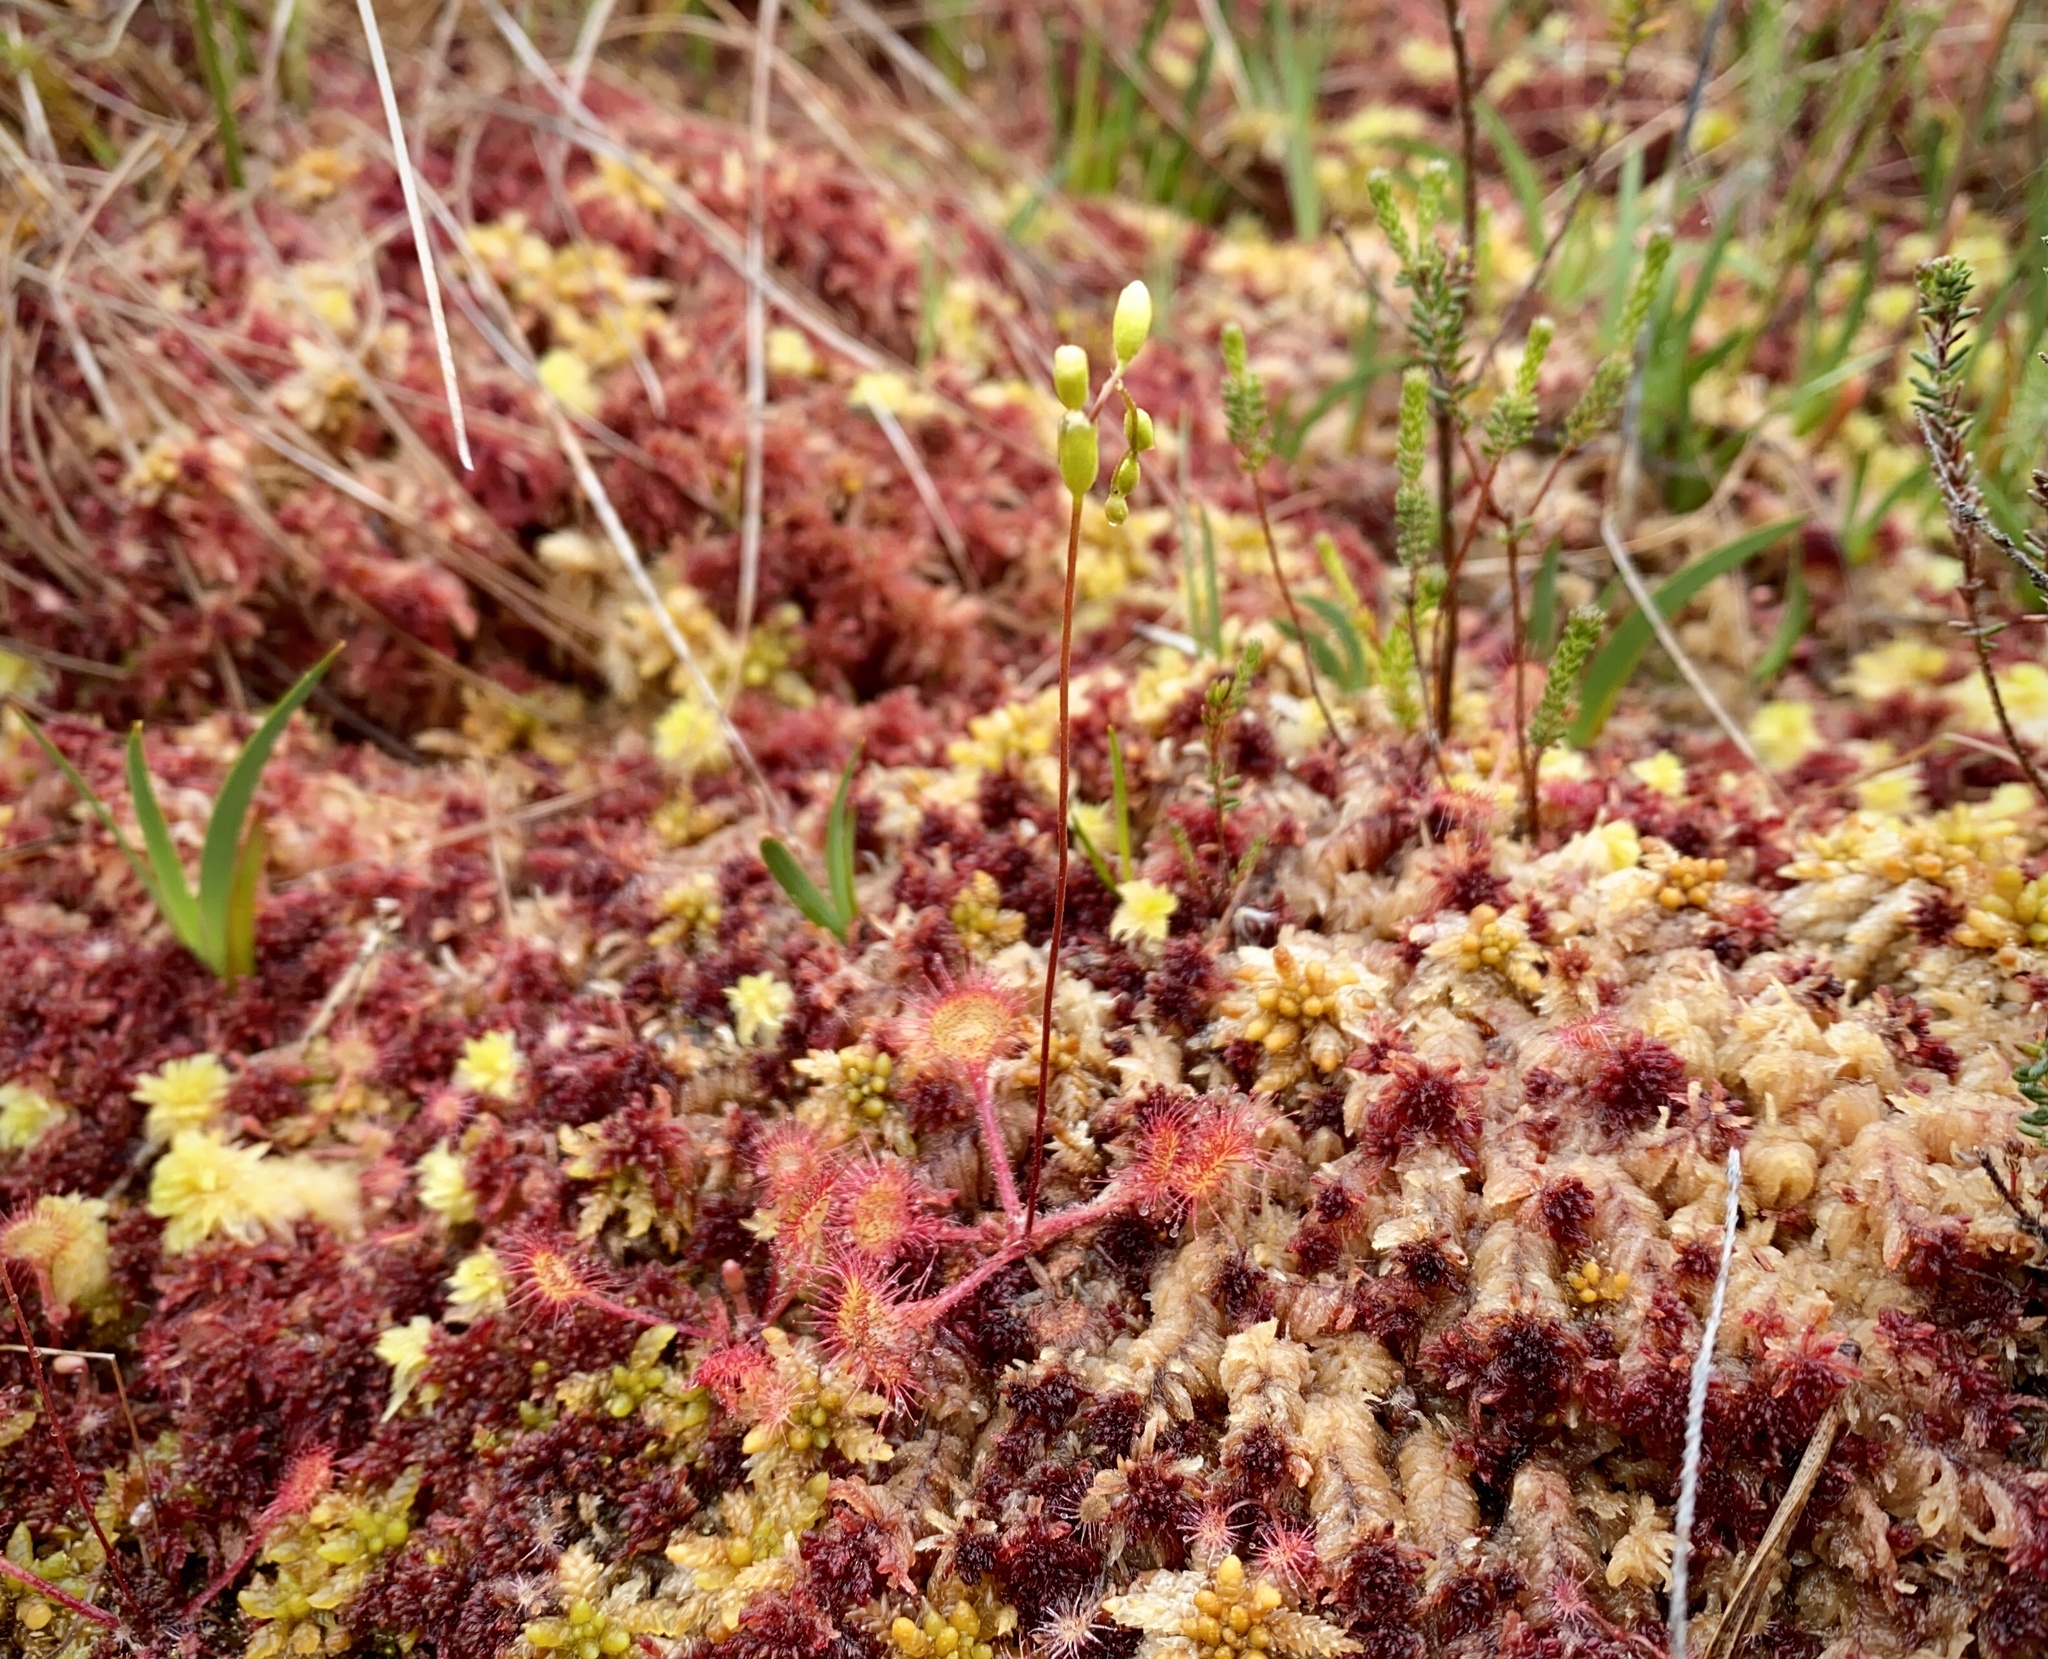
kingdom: Plantae
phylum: Tracheophyta
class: Magnoliopsida
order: Caryophyllales
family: Droseraceae
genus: Drosera
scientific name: Drosera rotundifolia
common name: Round-leaved sundew
